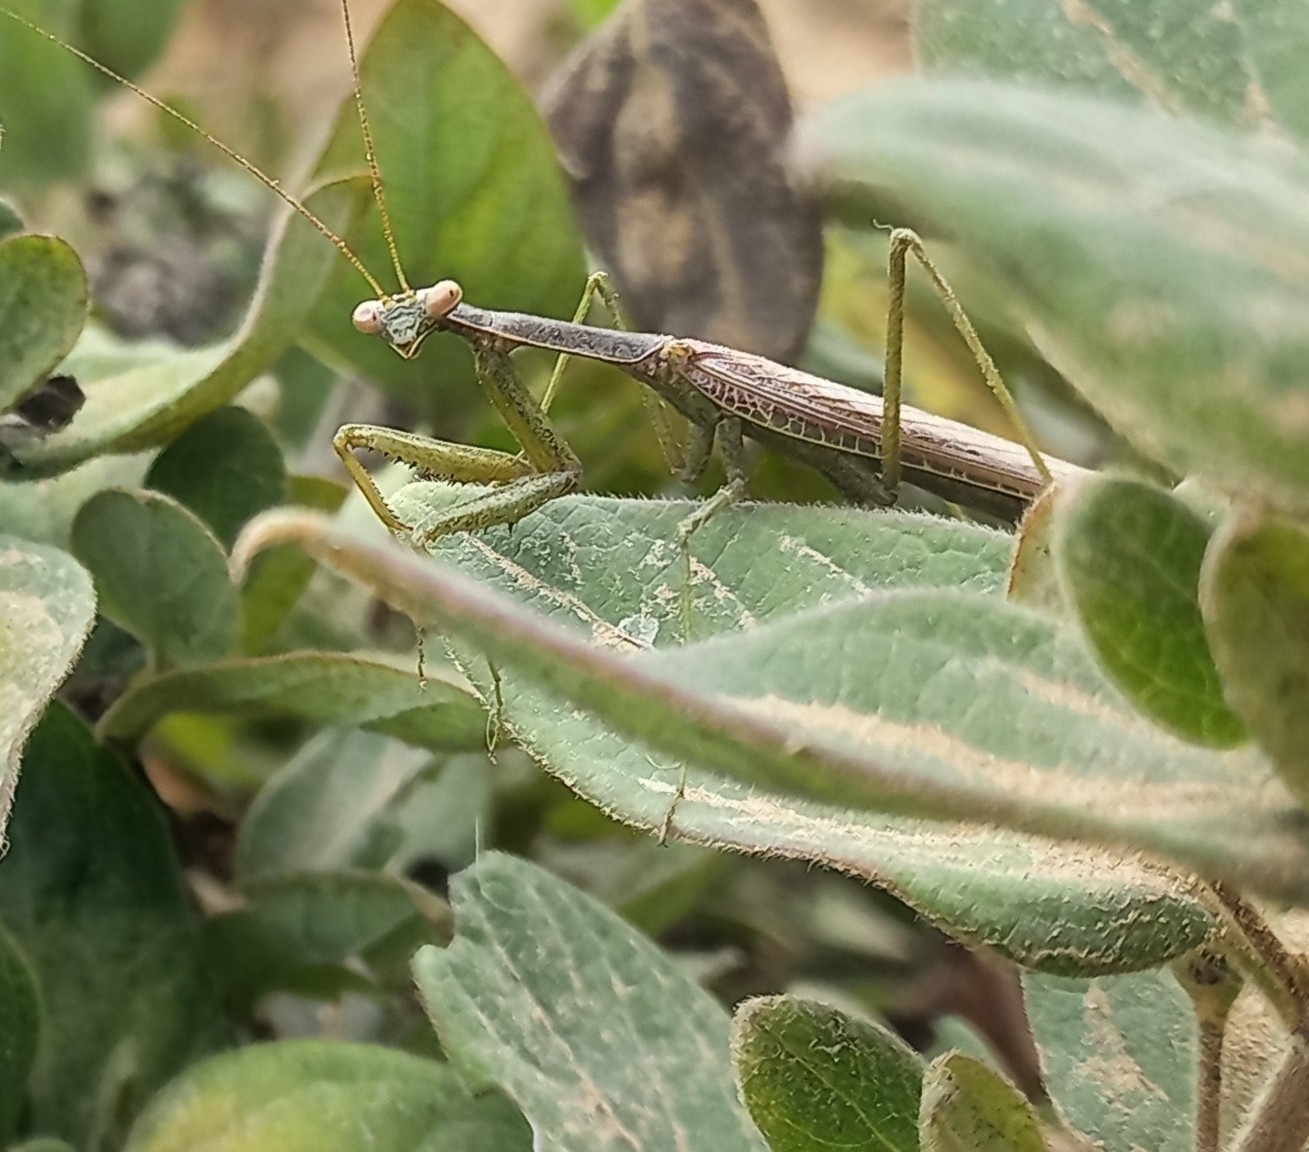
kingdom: Animalia
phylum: Arthropoda
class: Insecta
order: Mantodea
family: Coptopterygidae
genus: Coptopteryx
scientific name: Coptopteryx gayi
